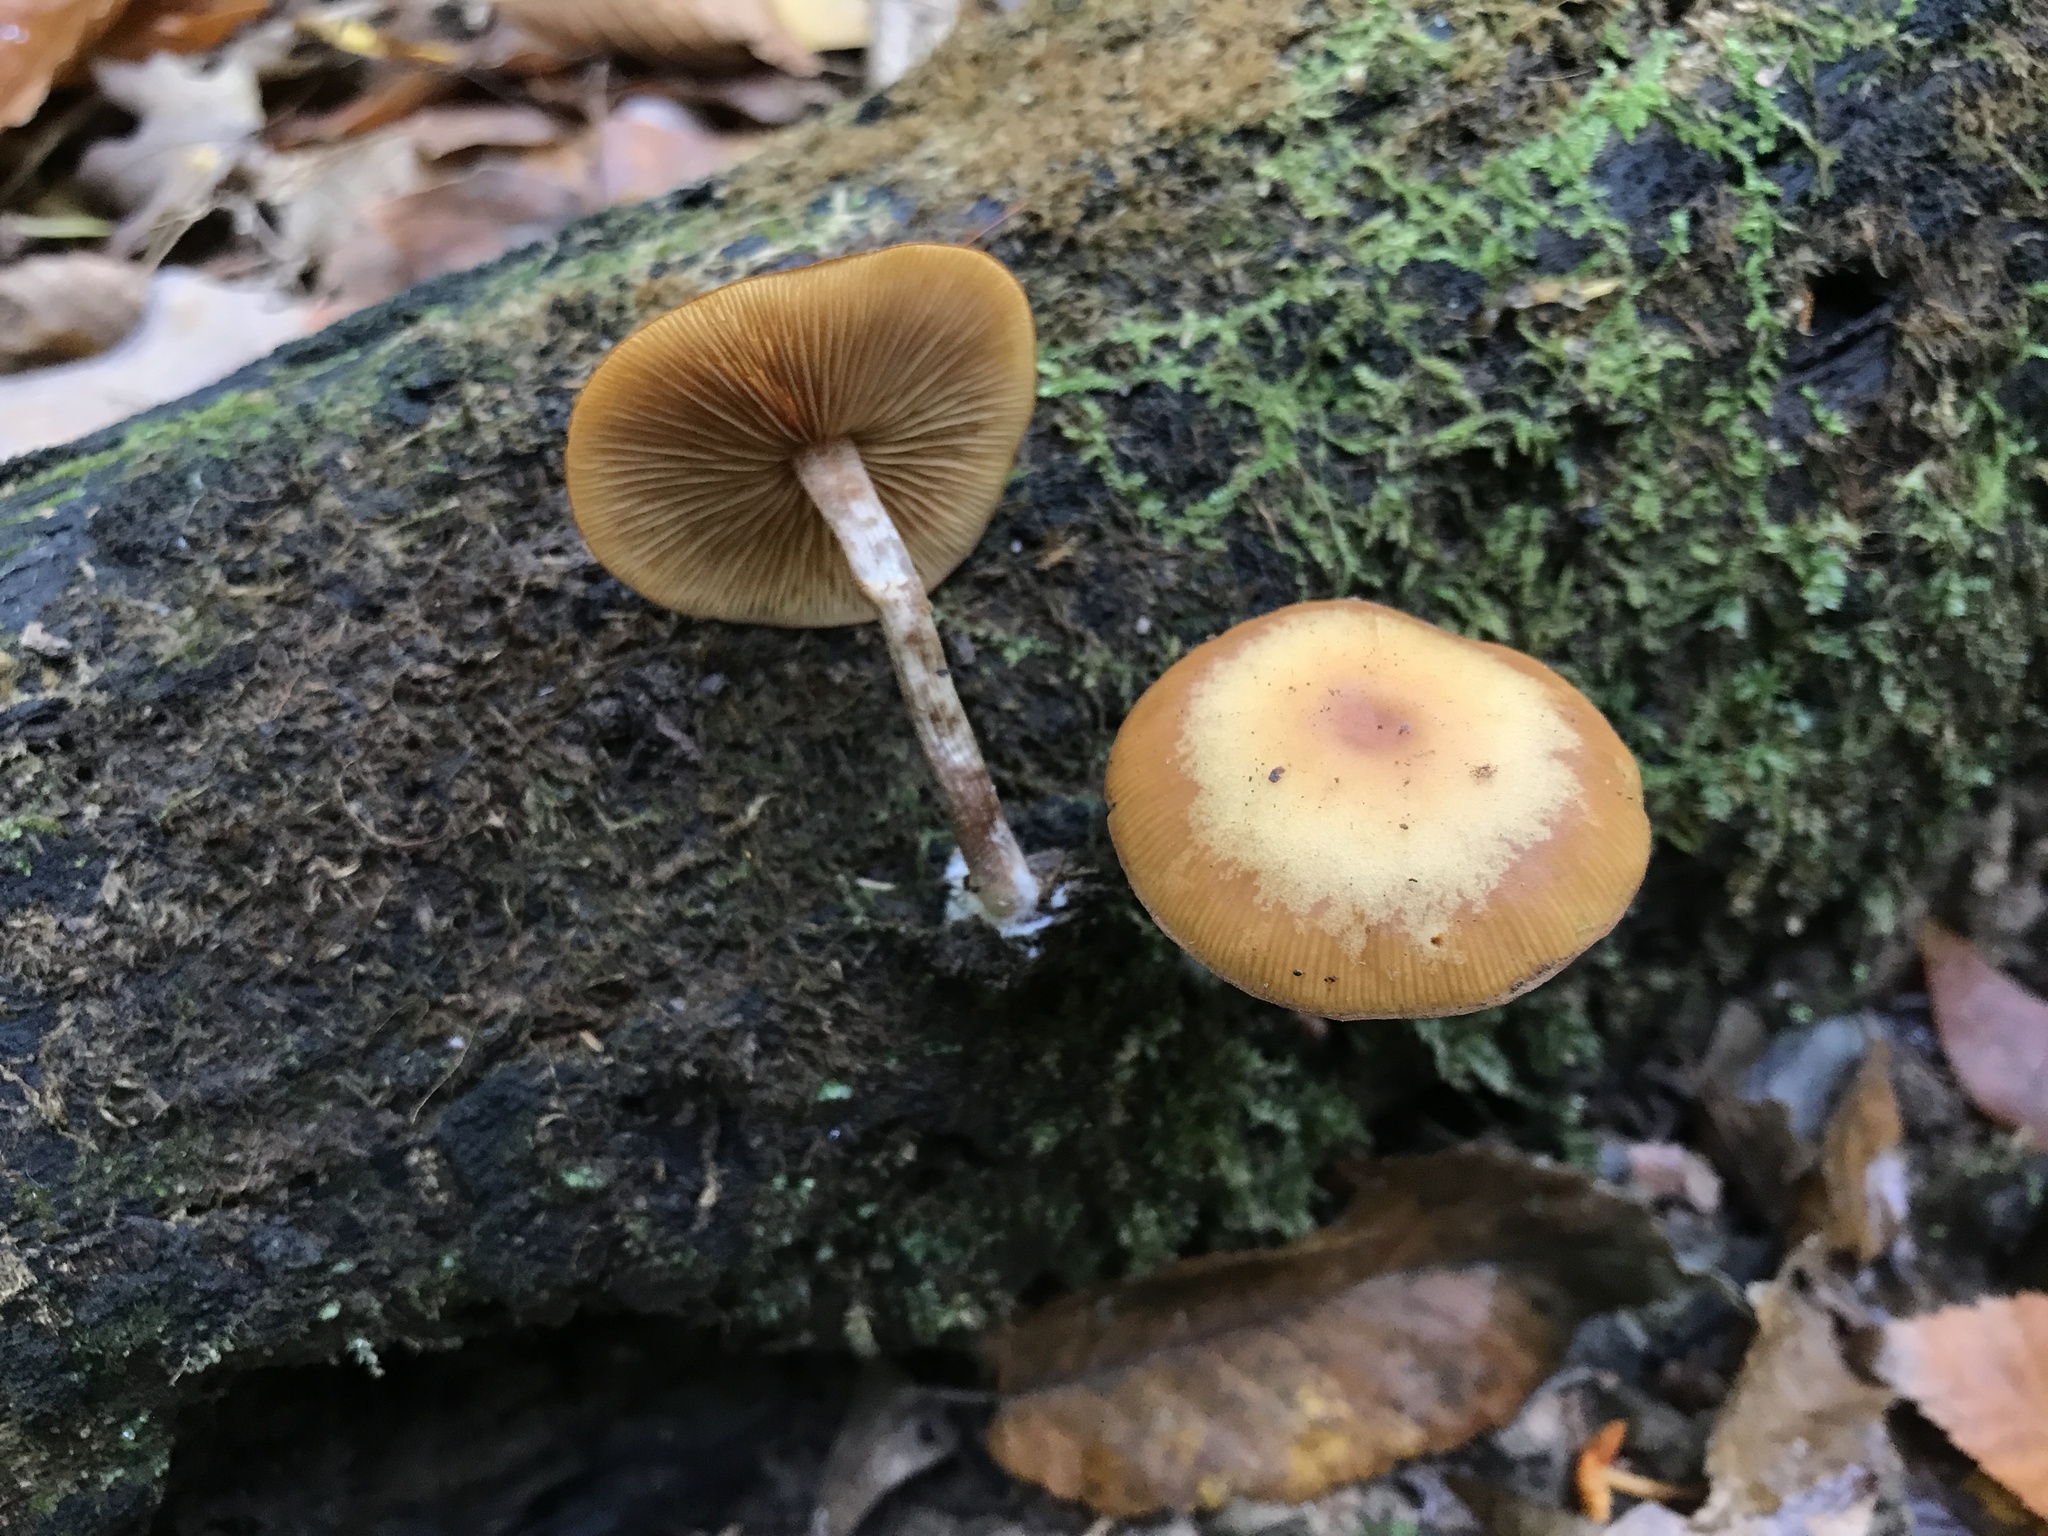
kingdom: Fungi
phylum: Basidiomycota
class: Agaricomycetes
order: Agaricales
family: Hymenogastraceae
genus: Galerina
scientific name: Galerina marginata
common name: Funeral bell
